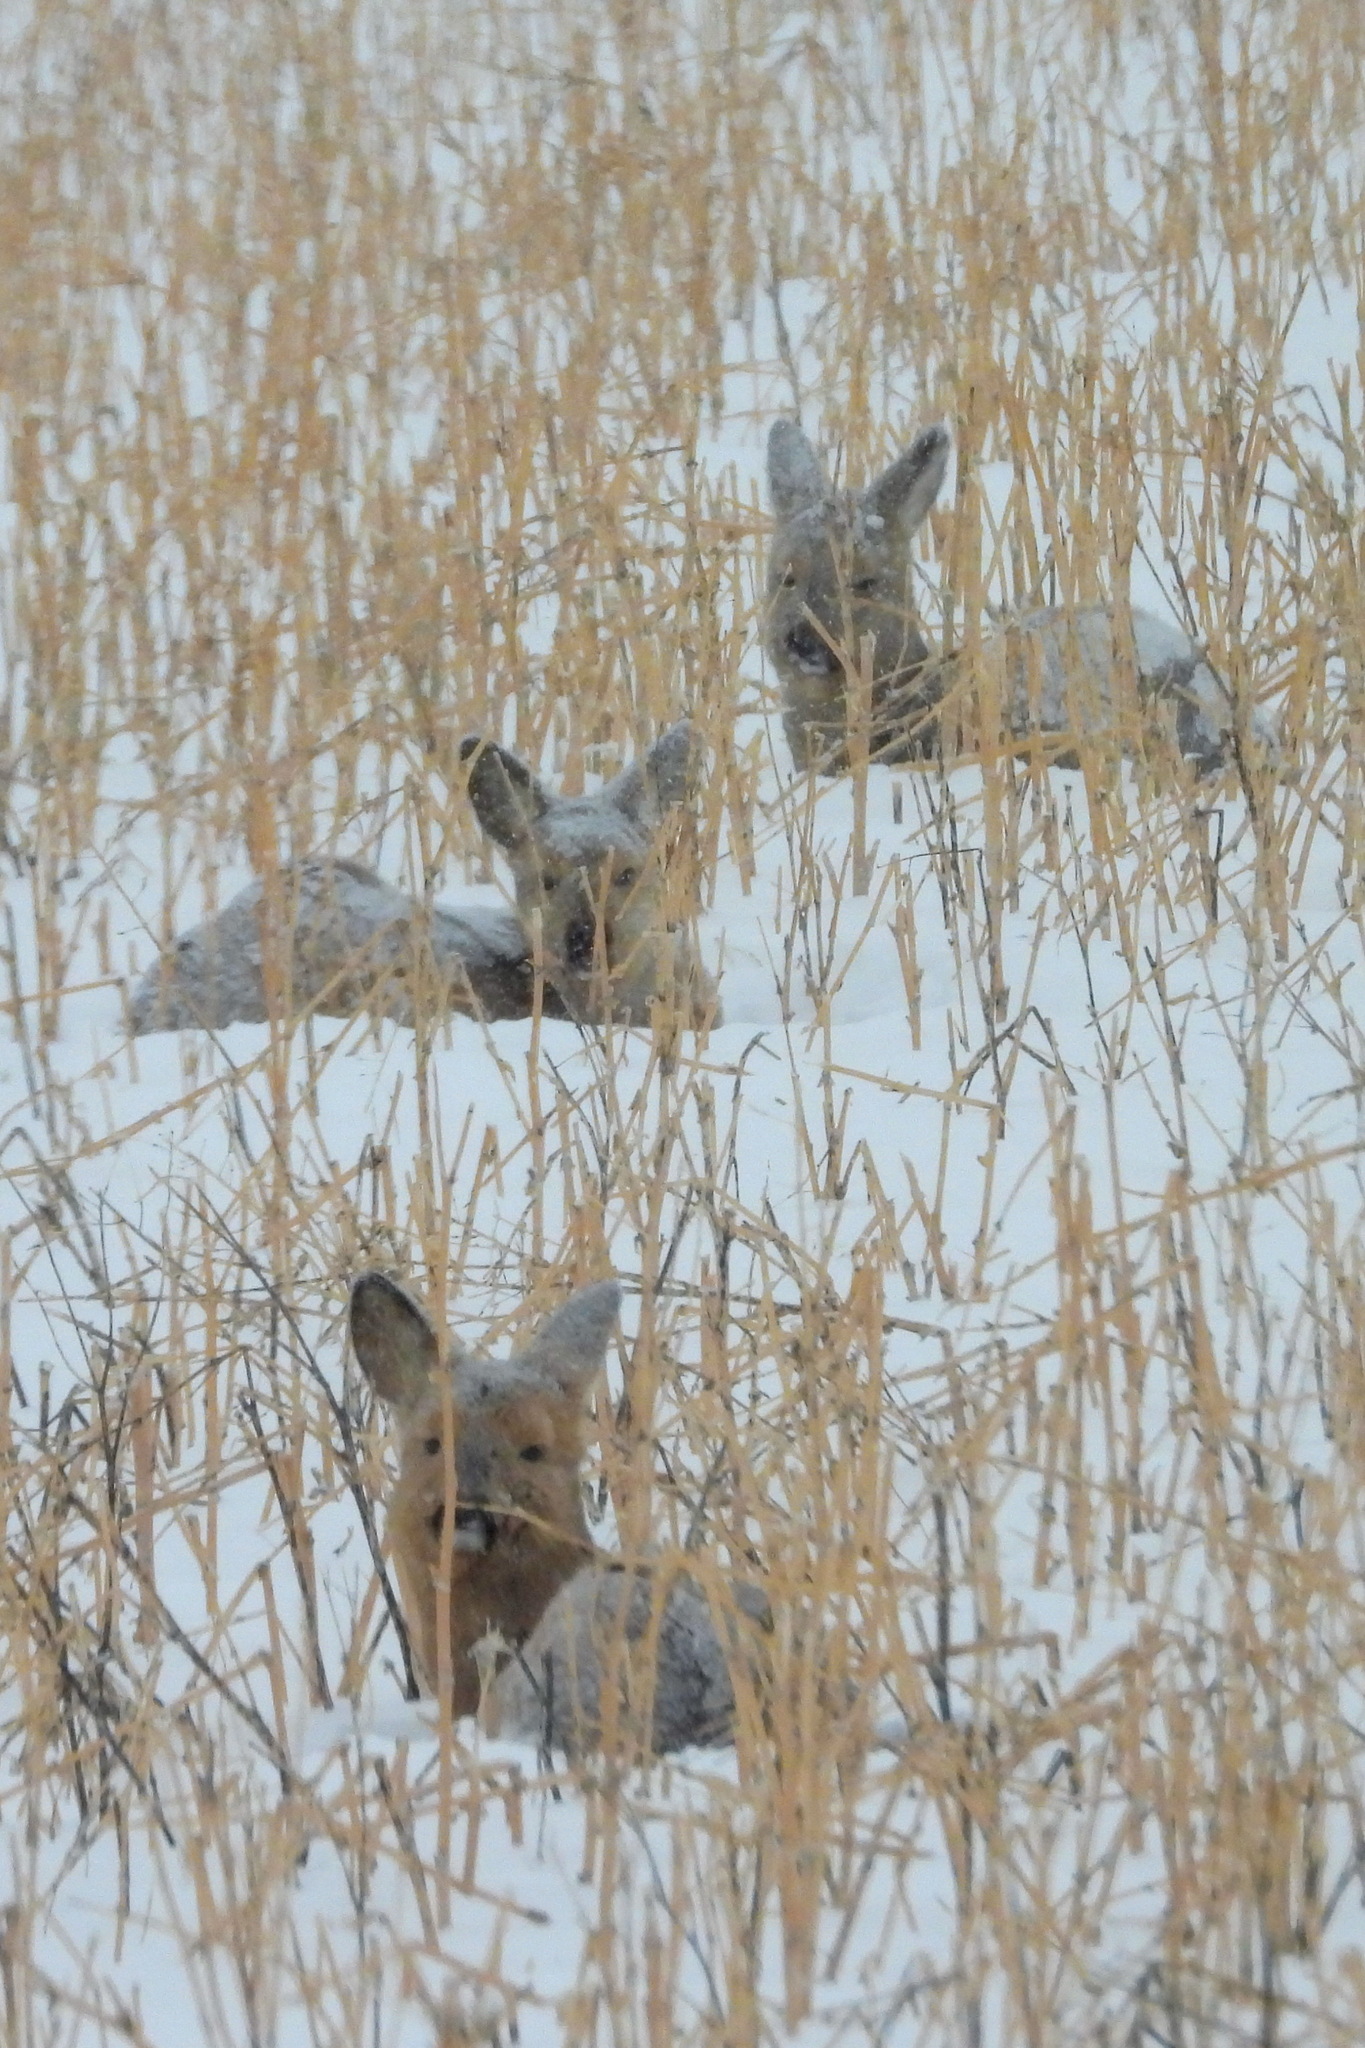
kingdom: Animalia
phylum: Chordata
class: Mammalia
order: Artiodactyla
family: Cervidae
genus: Capreolus
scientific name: Capreolus pygargus
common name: Siberian roe
